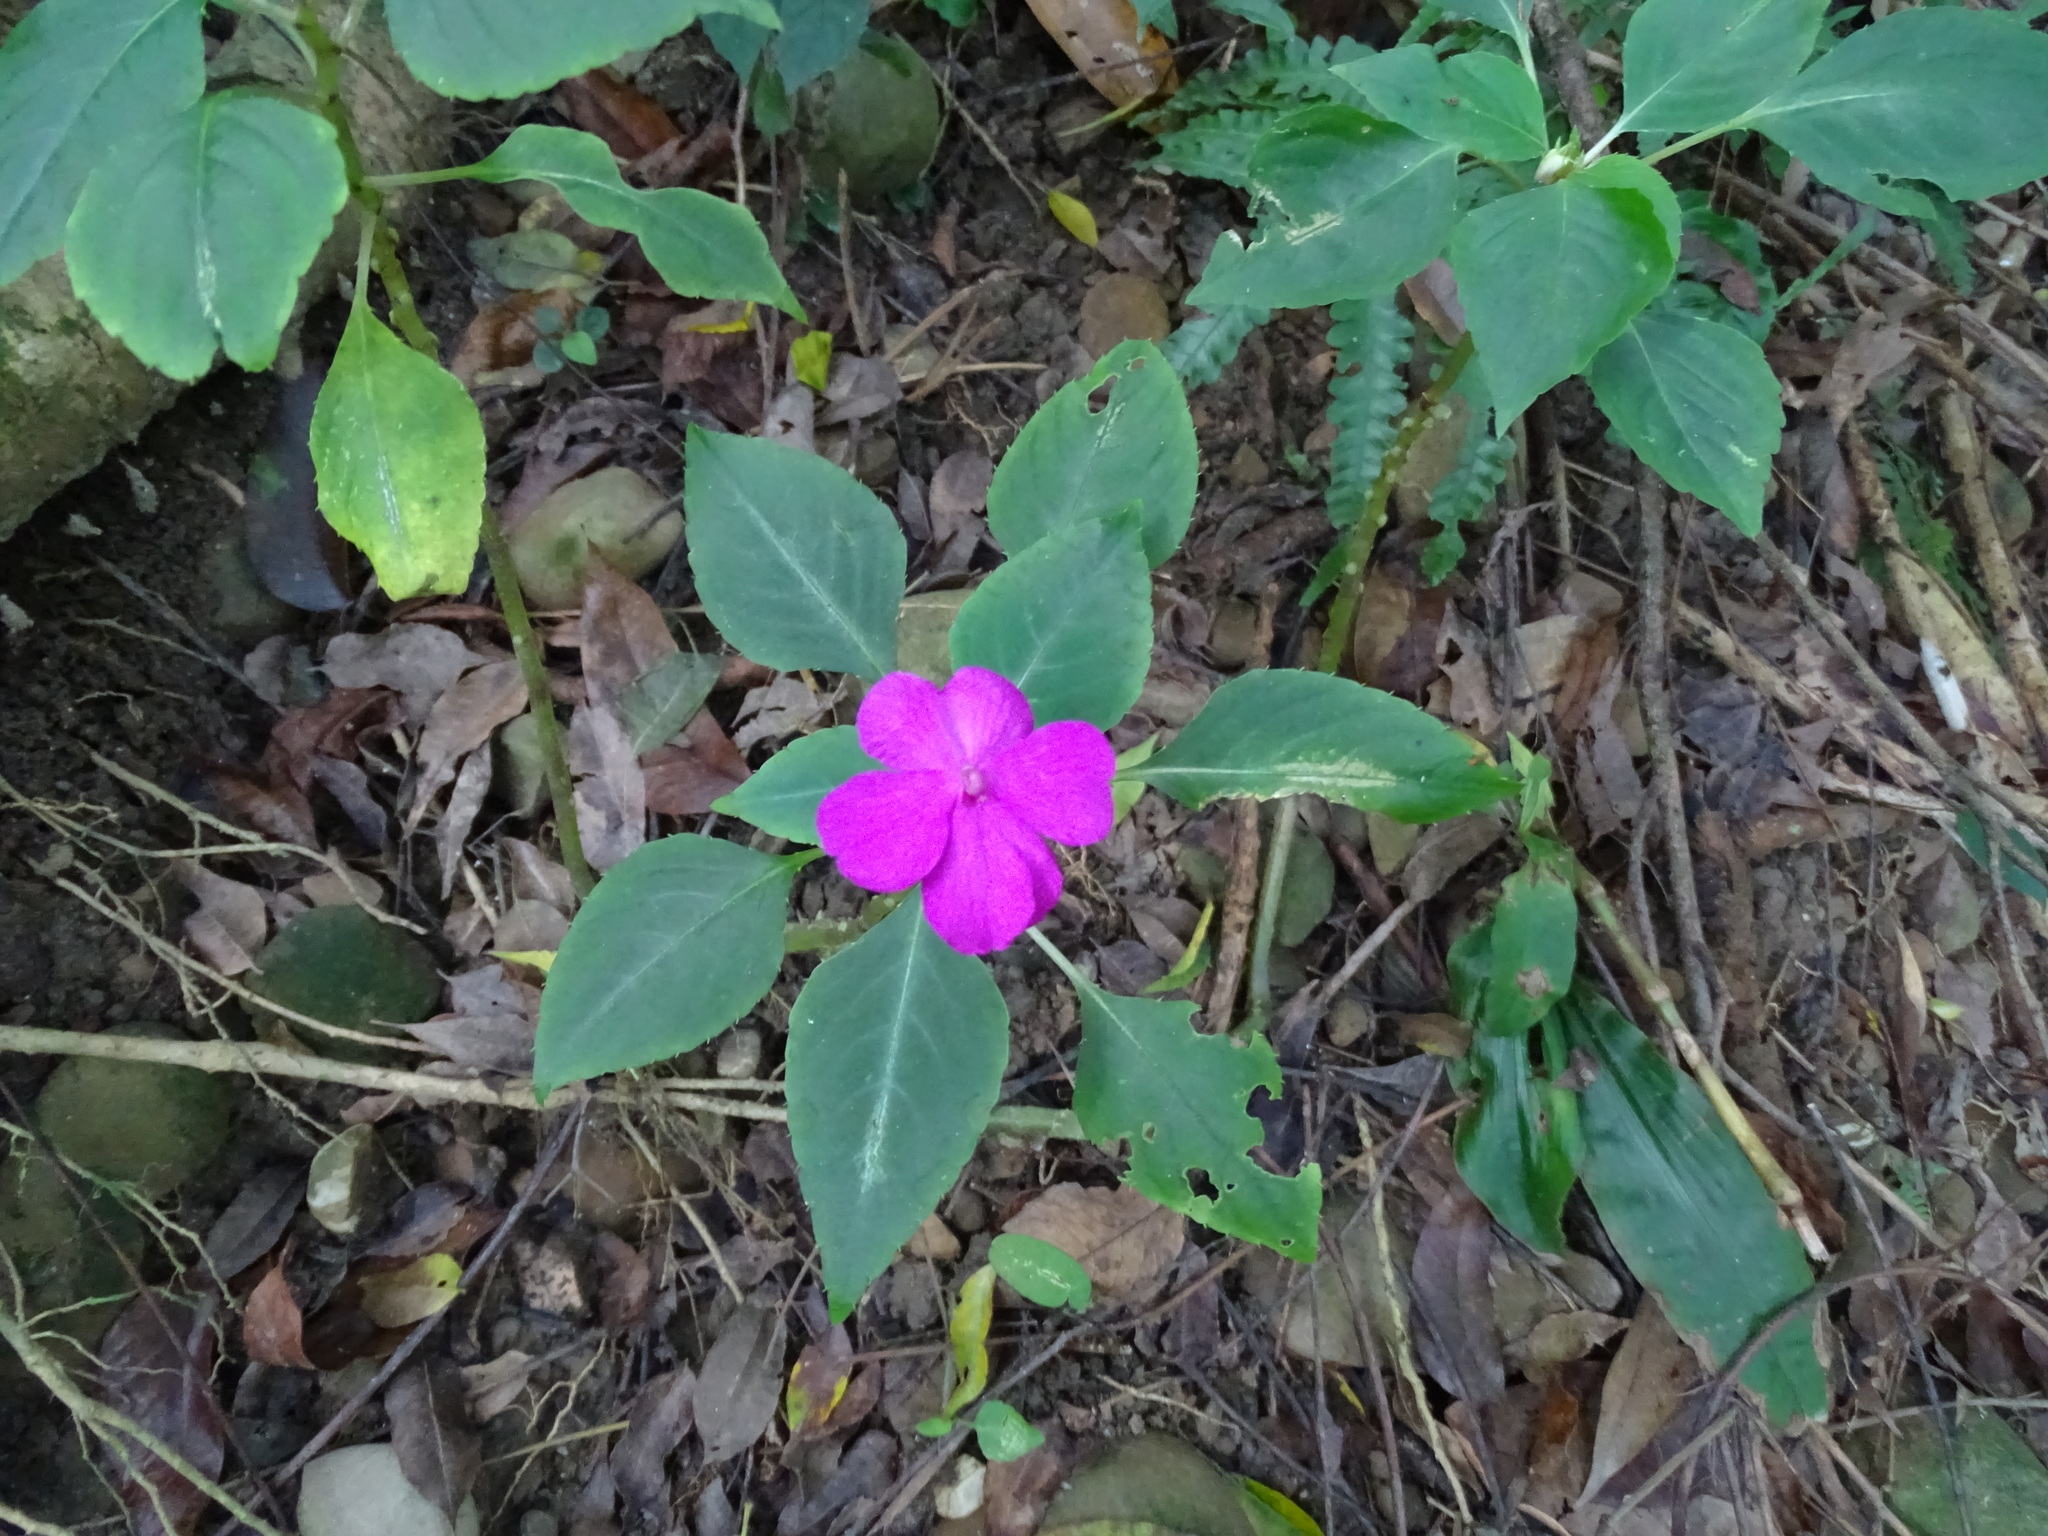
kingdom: Plantae
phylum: Tracheophyta
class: Magnoliopsida
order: Ericales
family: Balsaminaceae
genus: Impatiens
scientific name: Impatiens walleriana
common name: Buzzy lizzy
